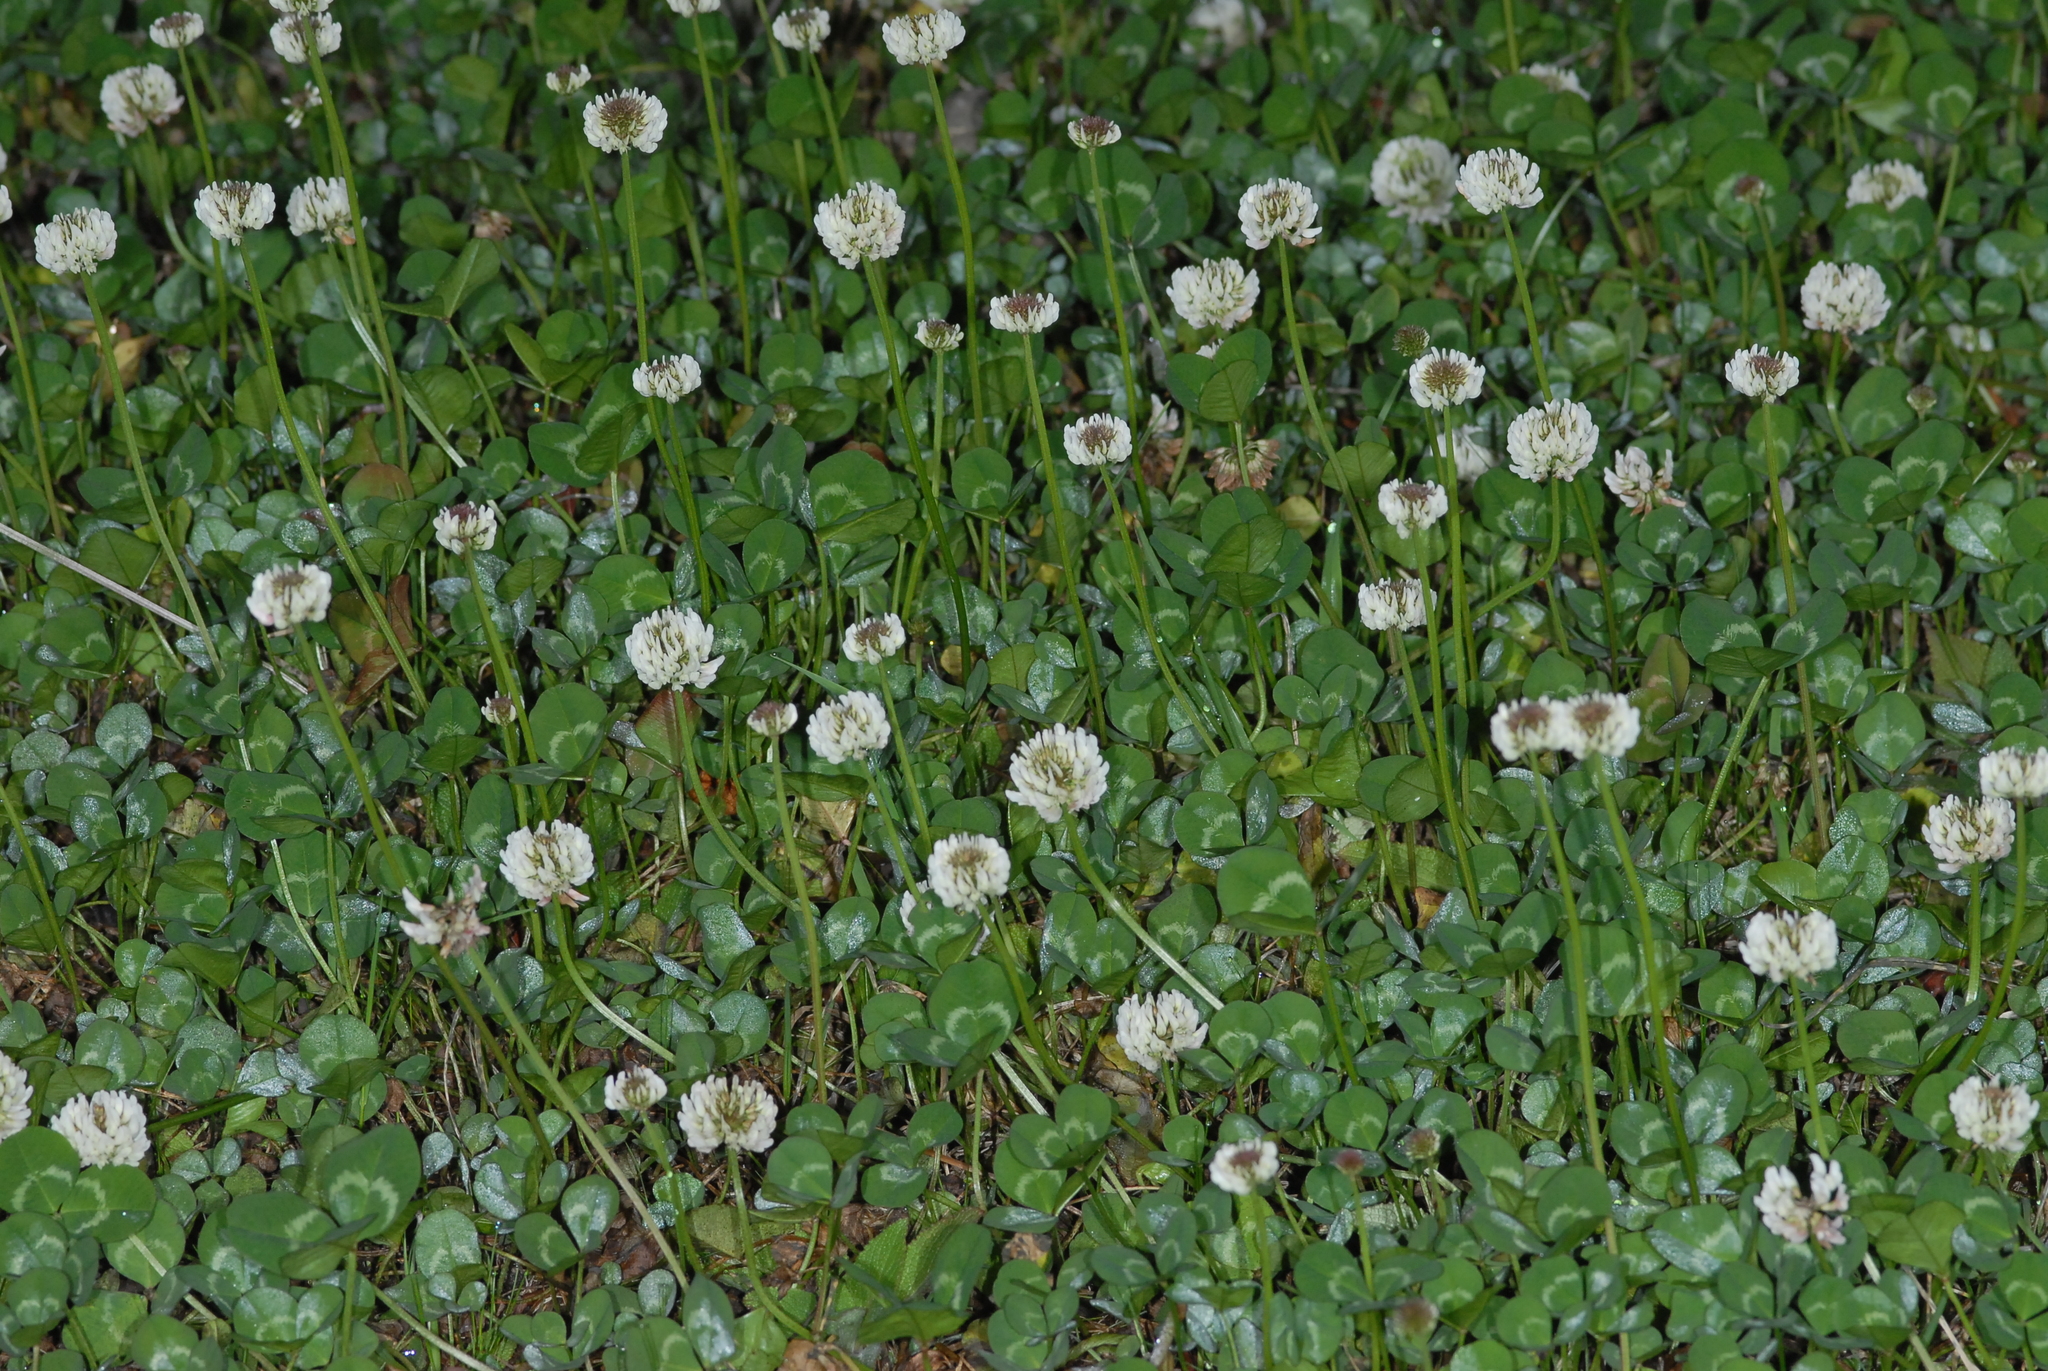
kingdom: Plantae
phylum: Tracheophyta
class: Magnoliopsida
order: Fabales
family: Fabaceae
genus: Trifolium
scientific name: Trifolium repens
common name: White clover
